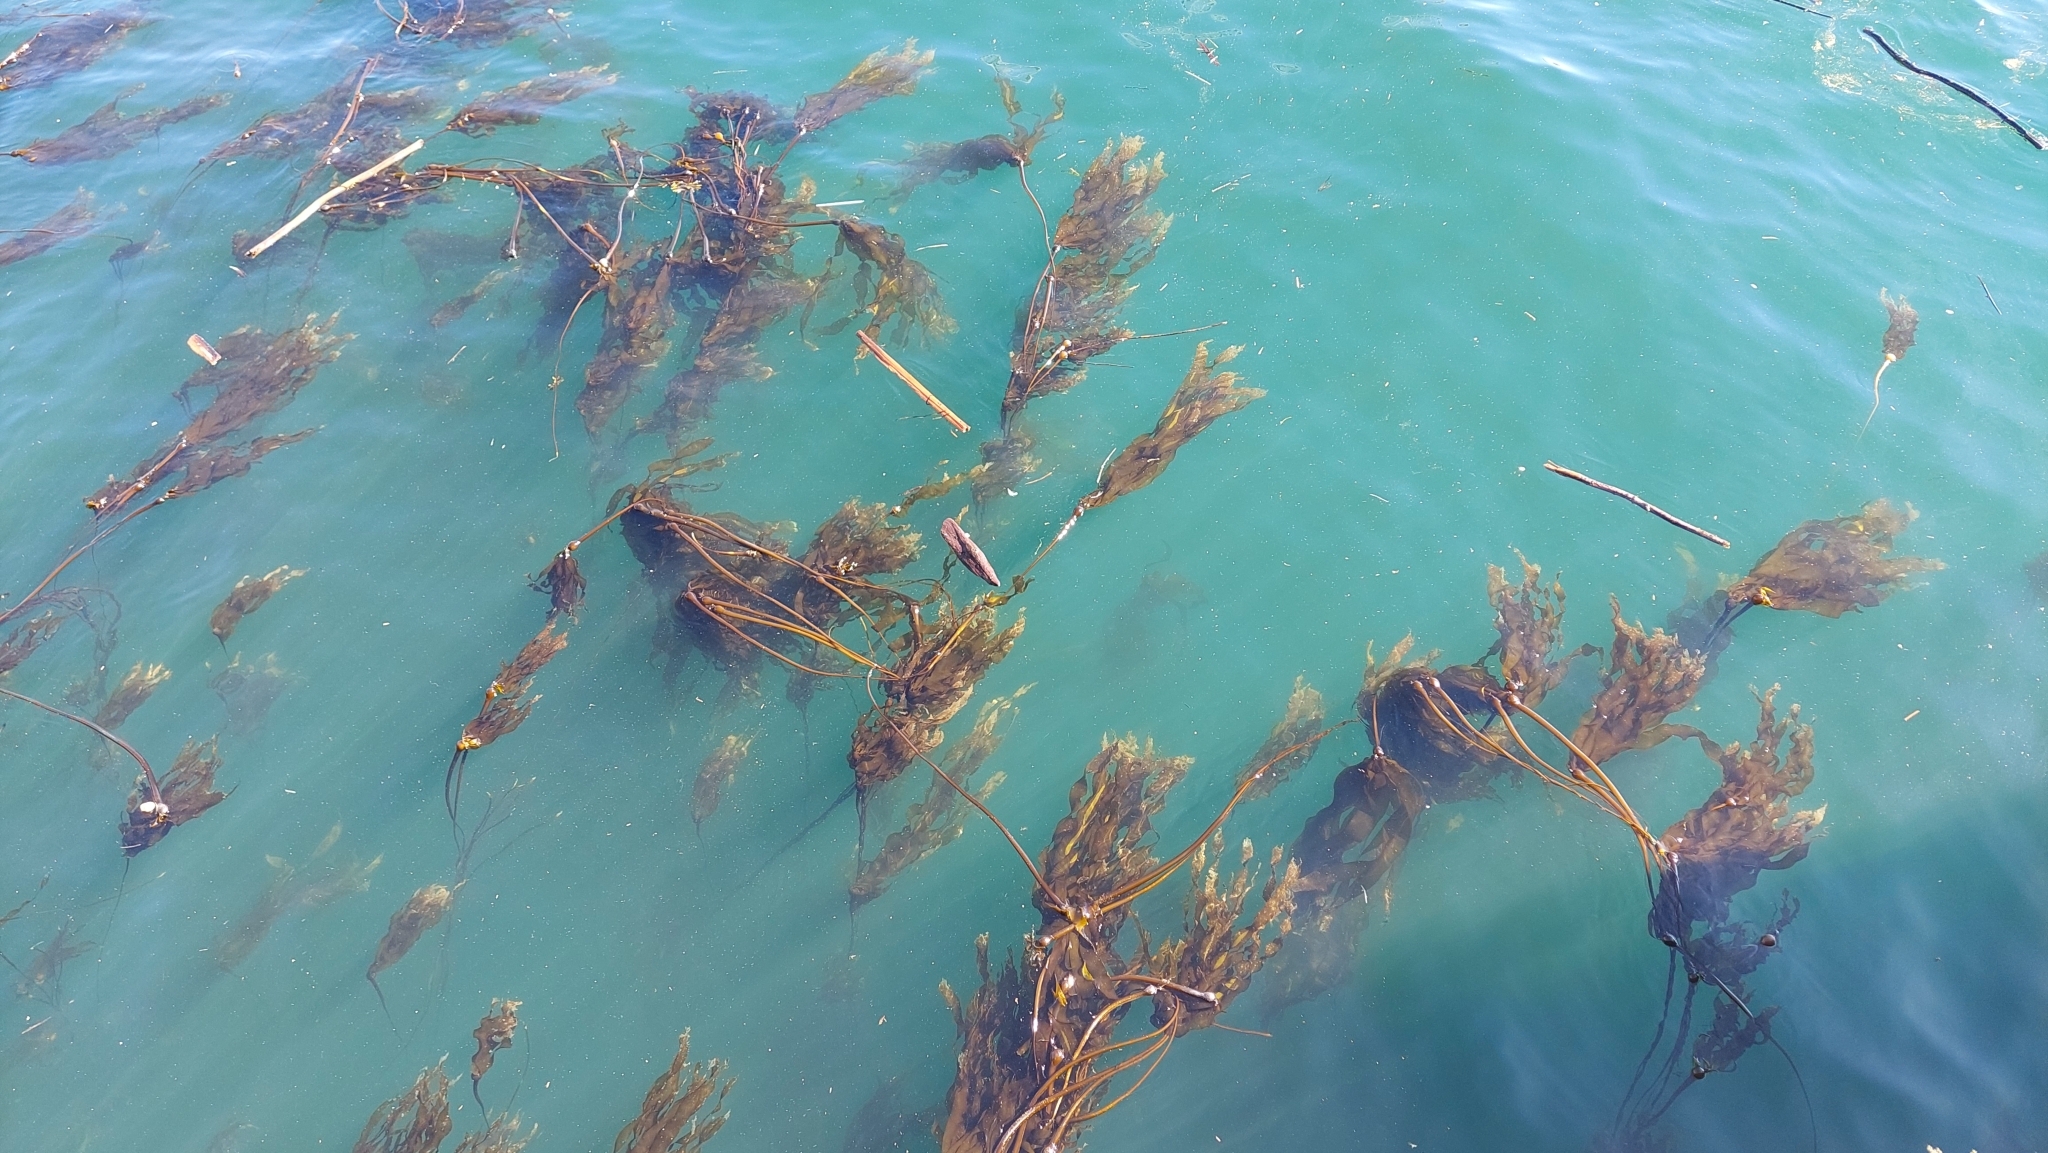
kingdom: Chromista
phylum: Ochrophyta
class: Phaeophyceae
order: Laminariales
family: Laminariaceae
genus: Nereocystis
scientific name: Nereocystis luetkeana
